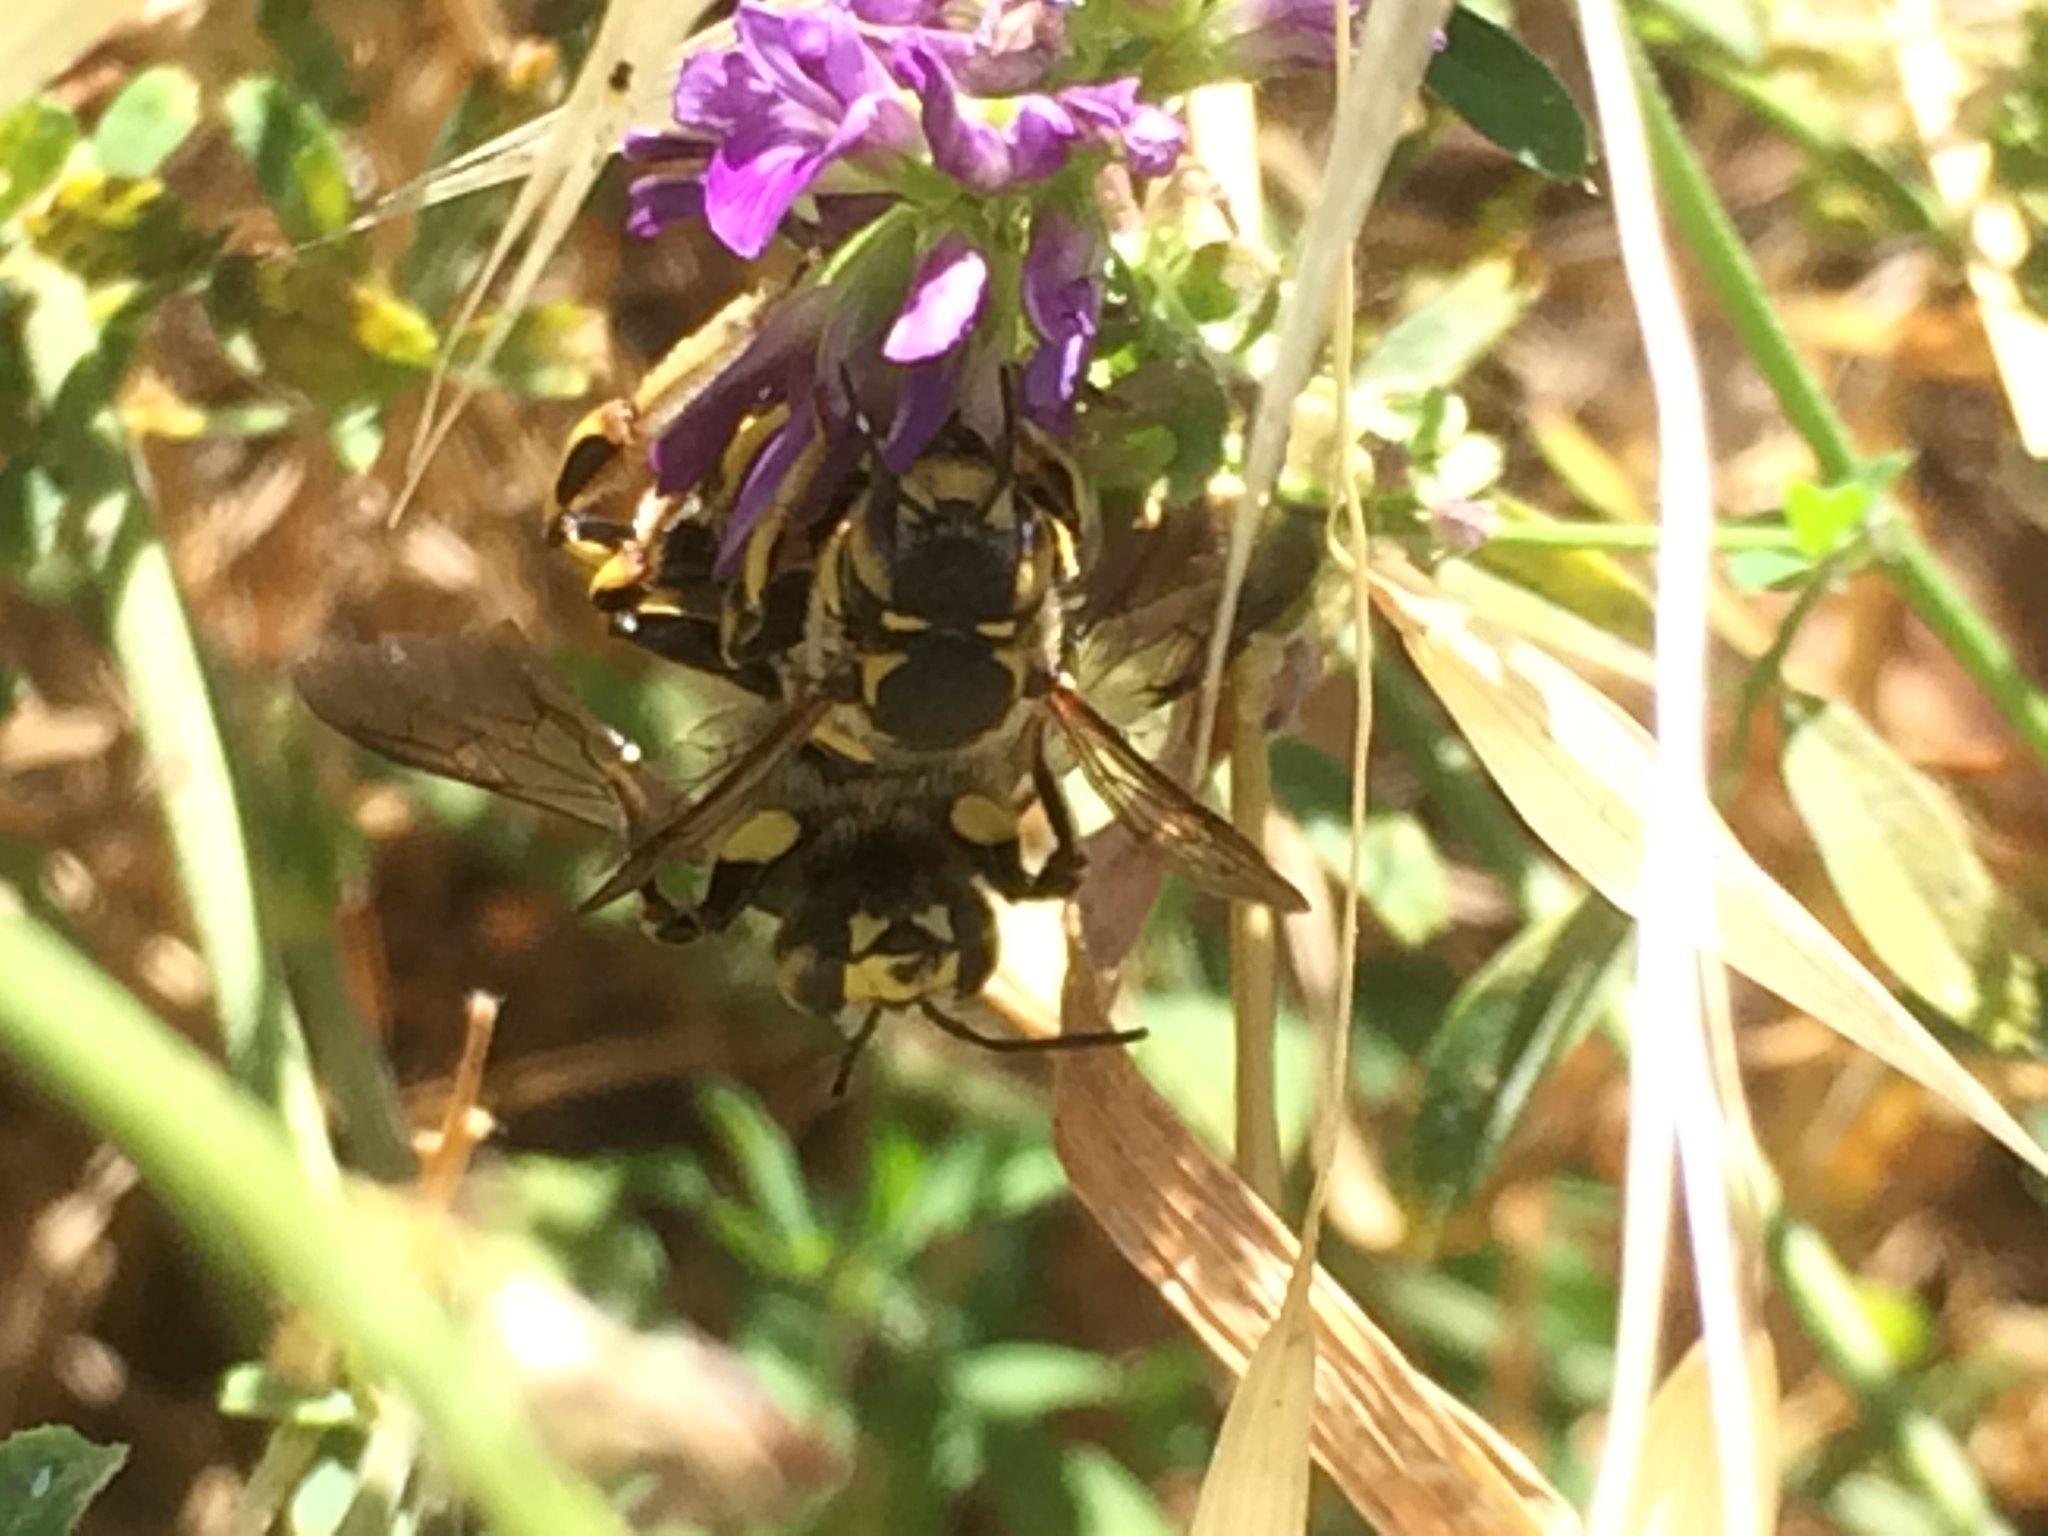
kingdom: Animalia
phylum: Arthropoda
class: Insecta
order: Hymenoptera
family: Megachilidae
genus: Anthidium
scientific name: Anthidium florentinum
